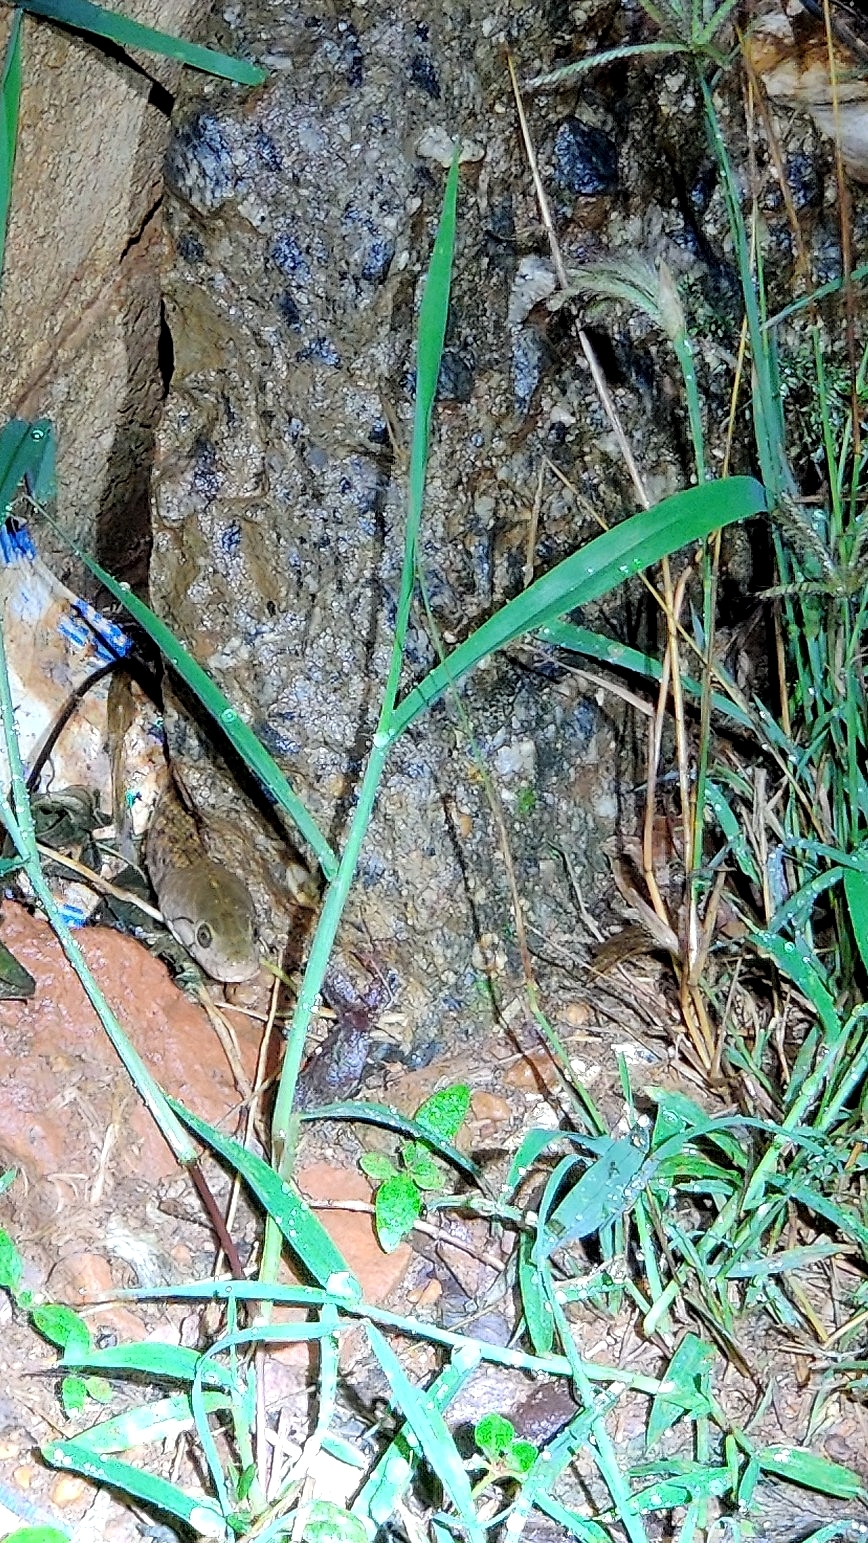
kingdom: Animalia
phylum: Chordata
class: Squamata
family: Colubridae
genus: Fowlea
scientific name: Fowlea piscator
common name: Asiatic water snake
